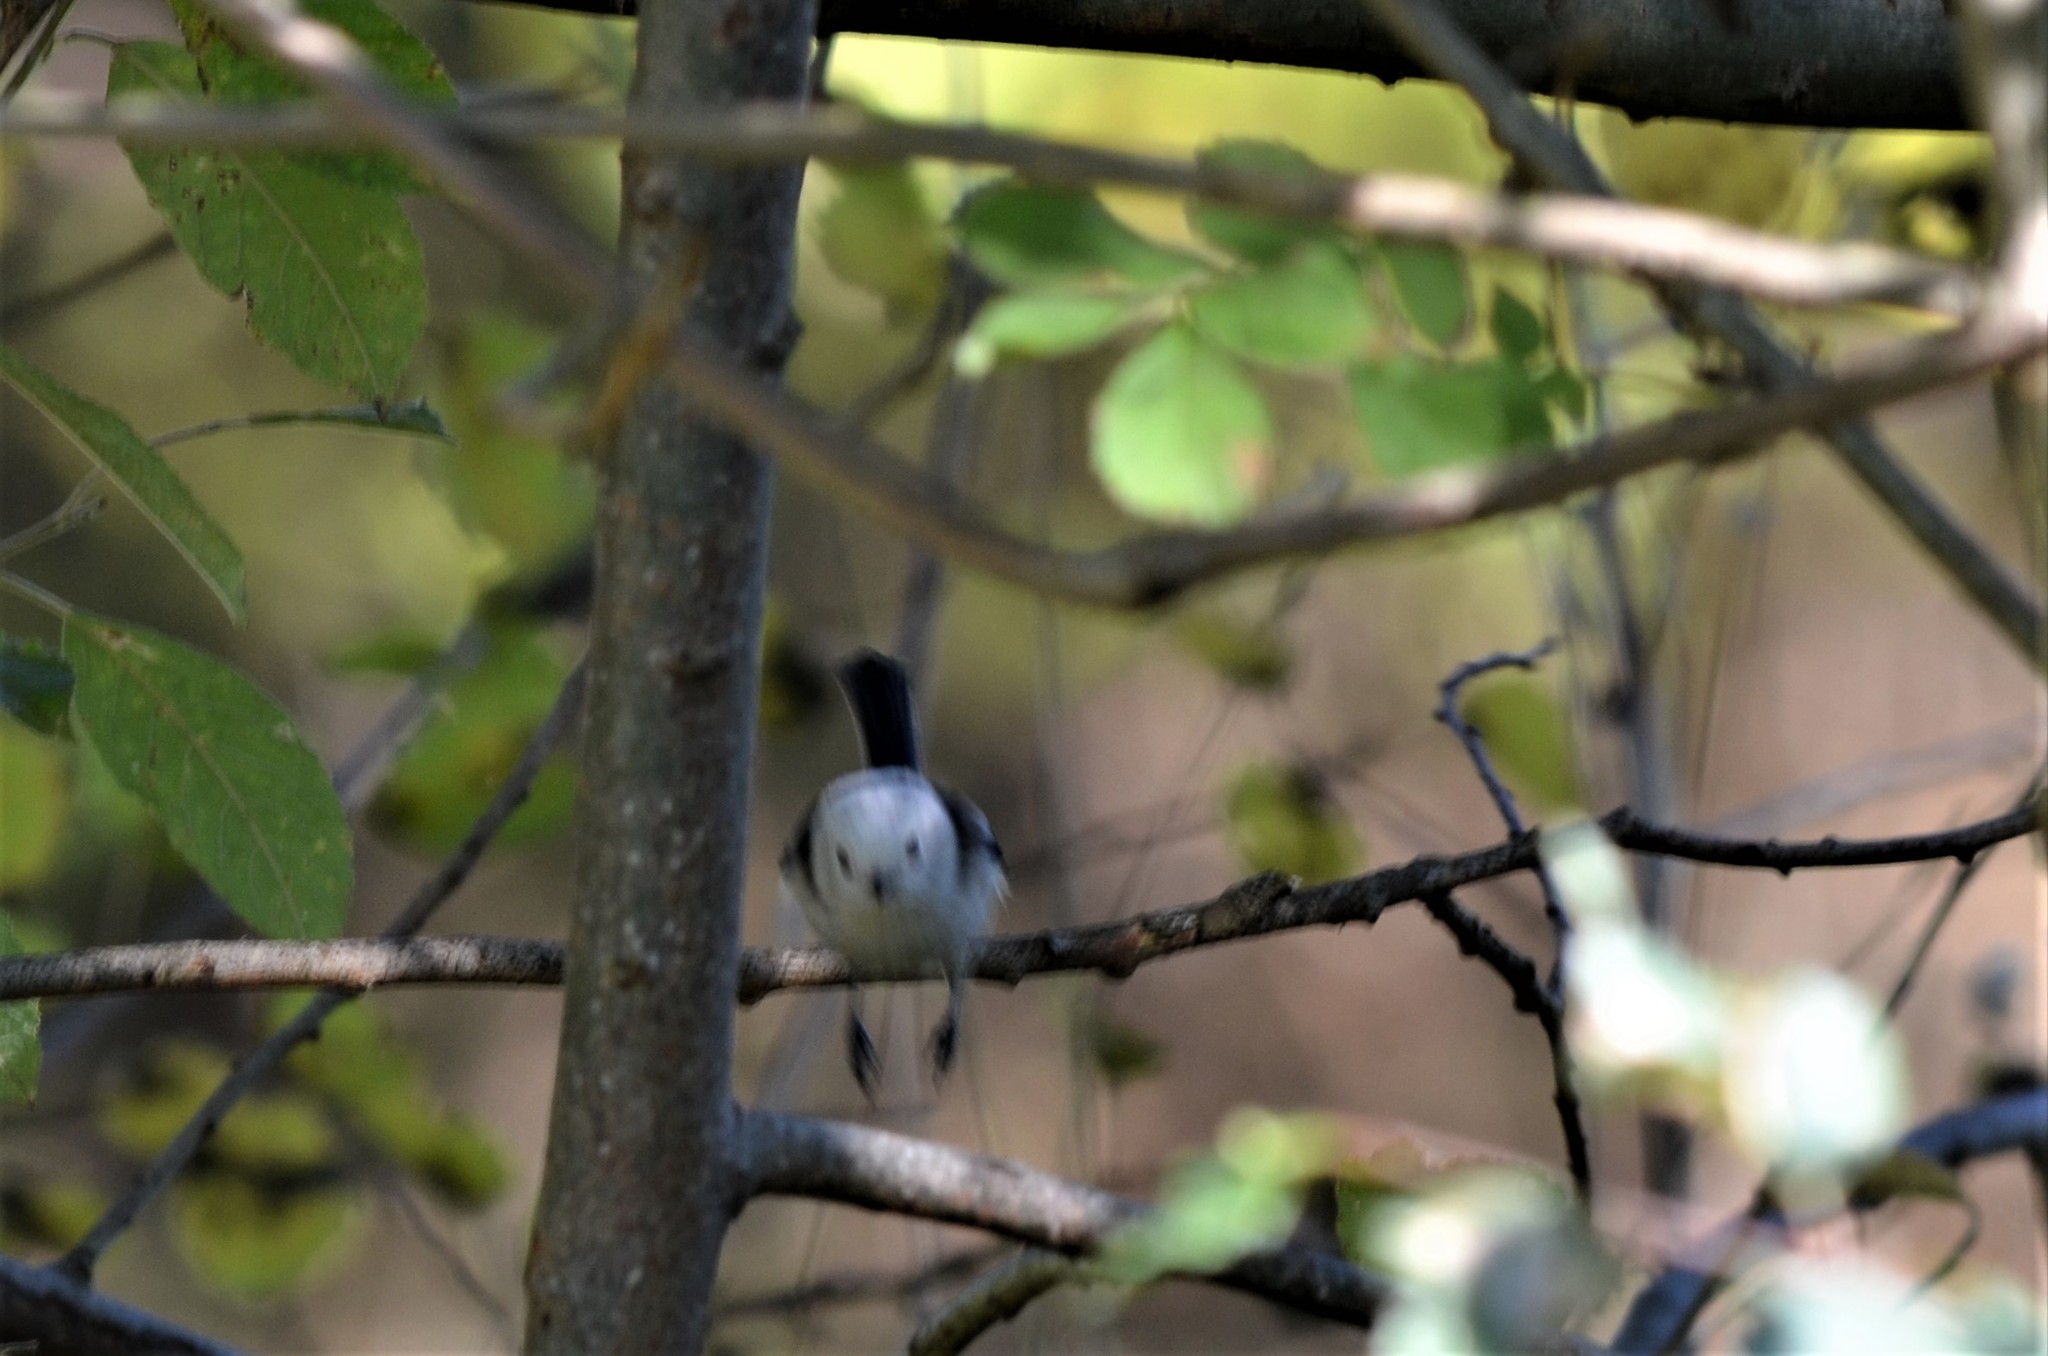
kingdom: Animalia
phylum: Chordata
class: Aves
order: Passeriformes
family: Aegithalidae
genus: Aegithalos
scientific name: Aegithalos caudatus
